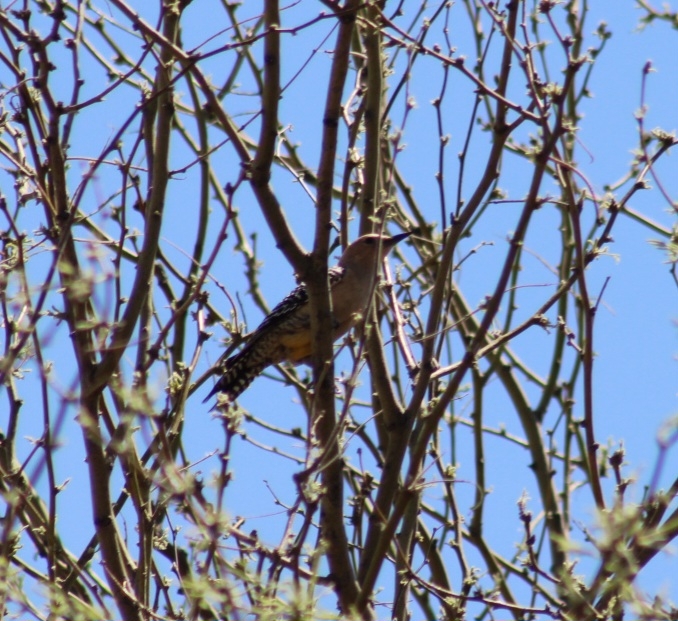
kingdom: Animalia
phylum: Chordata
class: Aves
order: Piciformes
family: Picidae
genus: Melanerpes
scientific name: Melanerpes uropygialis
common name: Gila woodpecker
